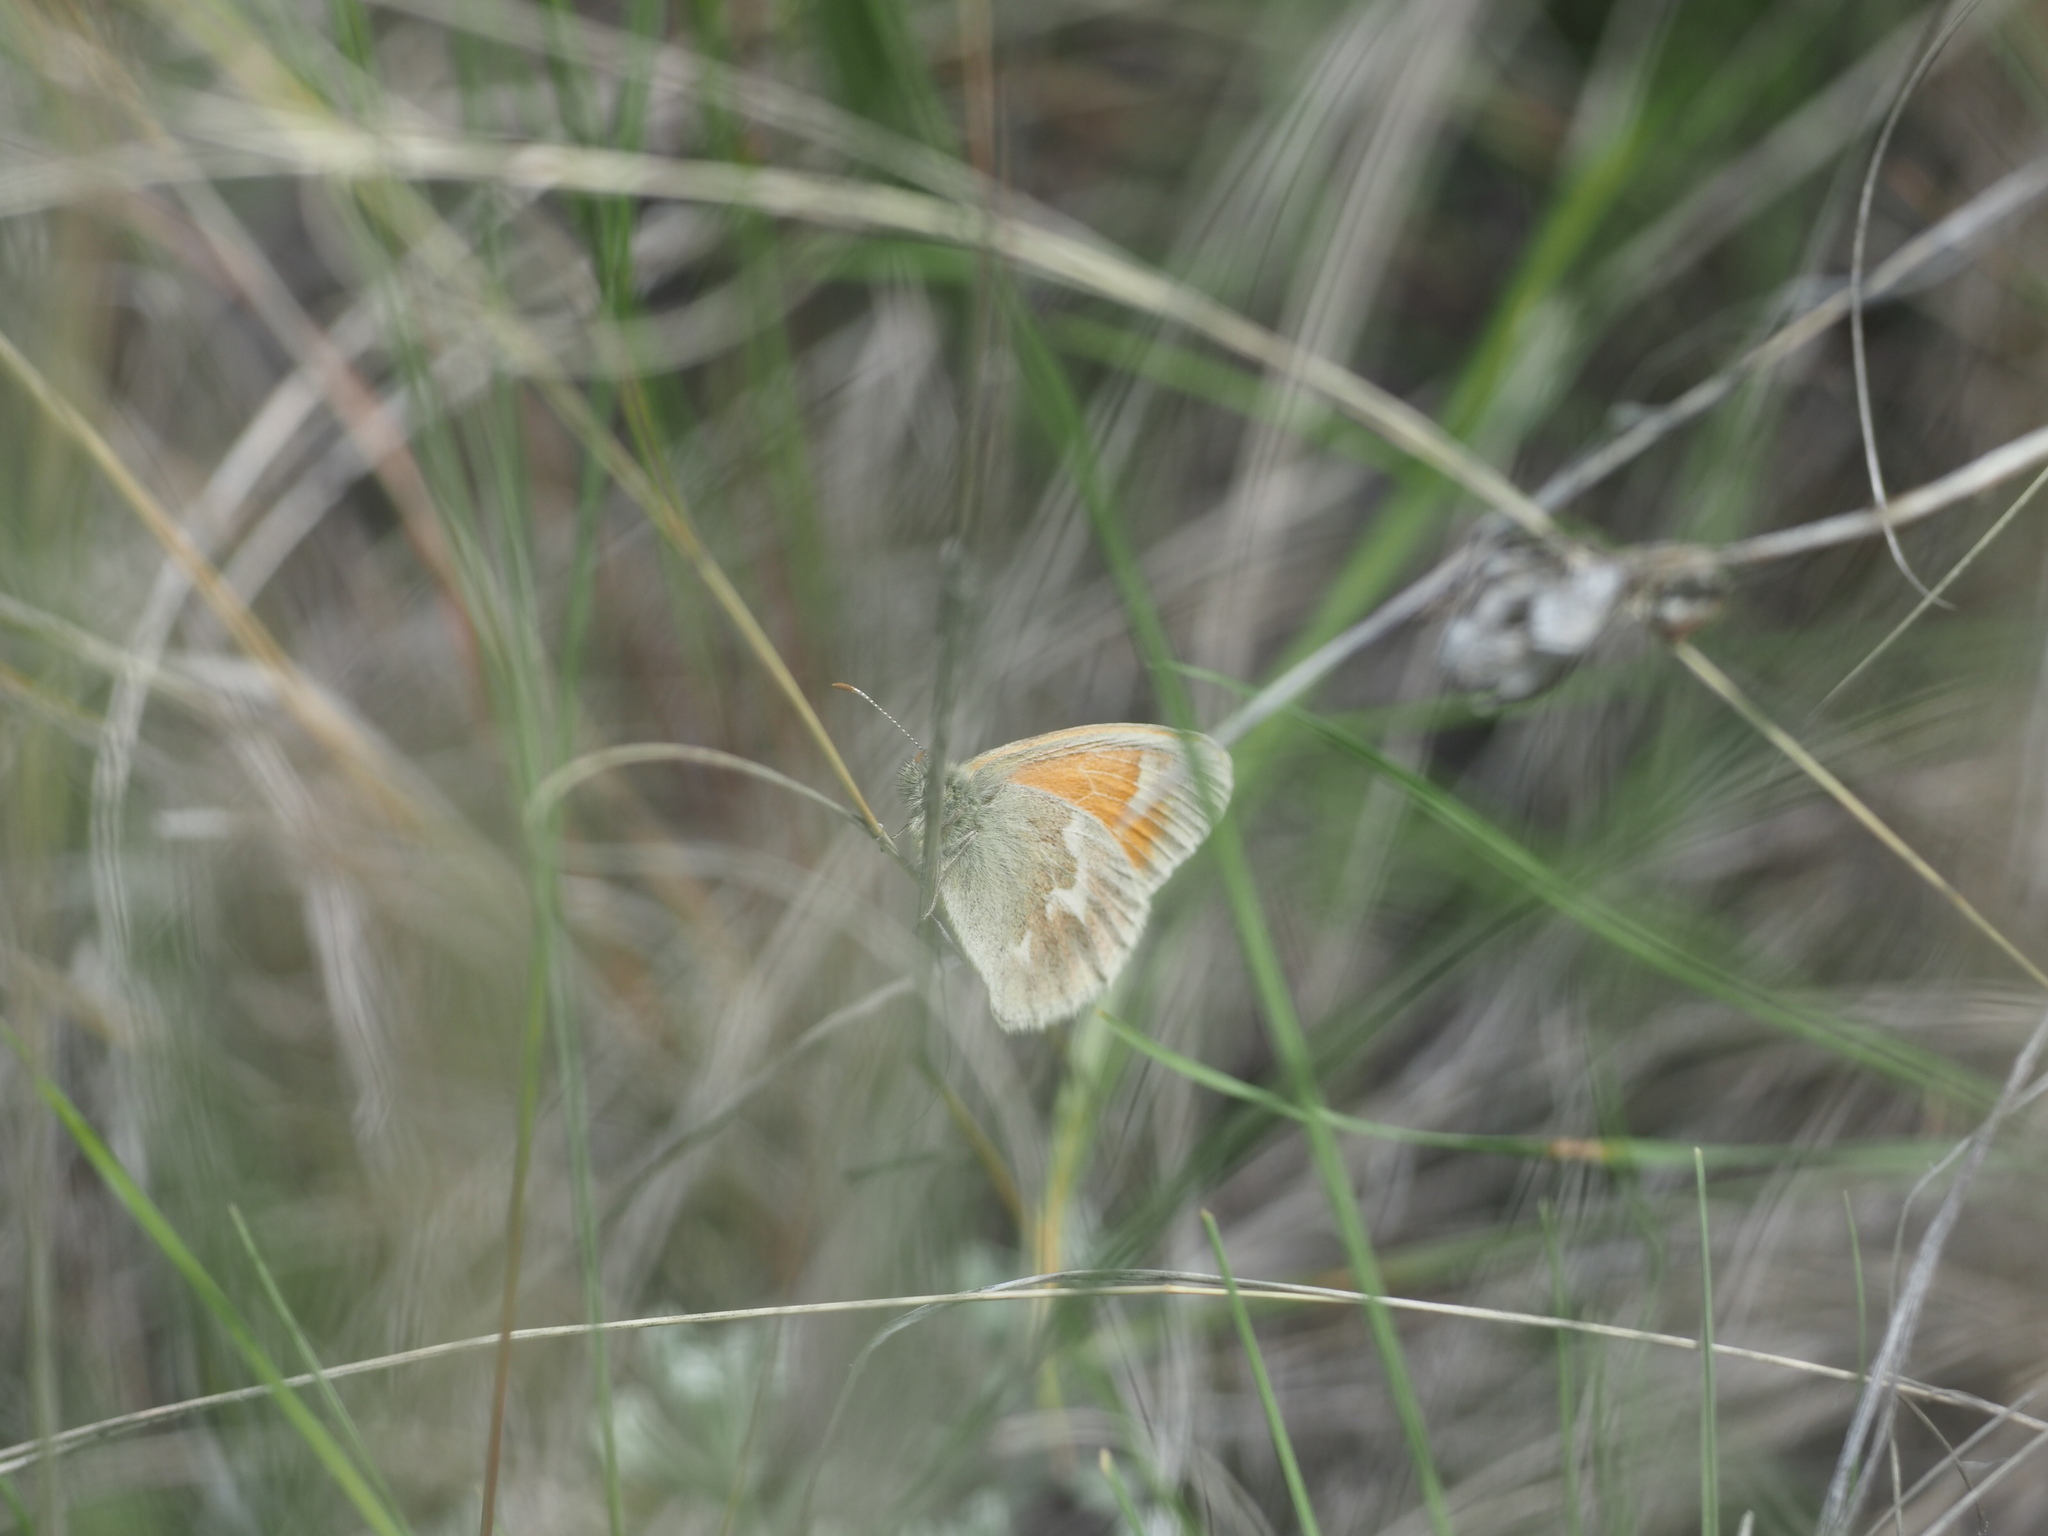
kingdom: Animalia
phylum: Arthropoda
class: Insecta
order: Lepidoptera
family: Nymphalidae
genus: Coenonympha
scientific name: Coenonympha california
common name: Common ringlet
